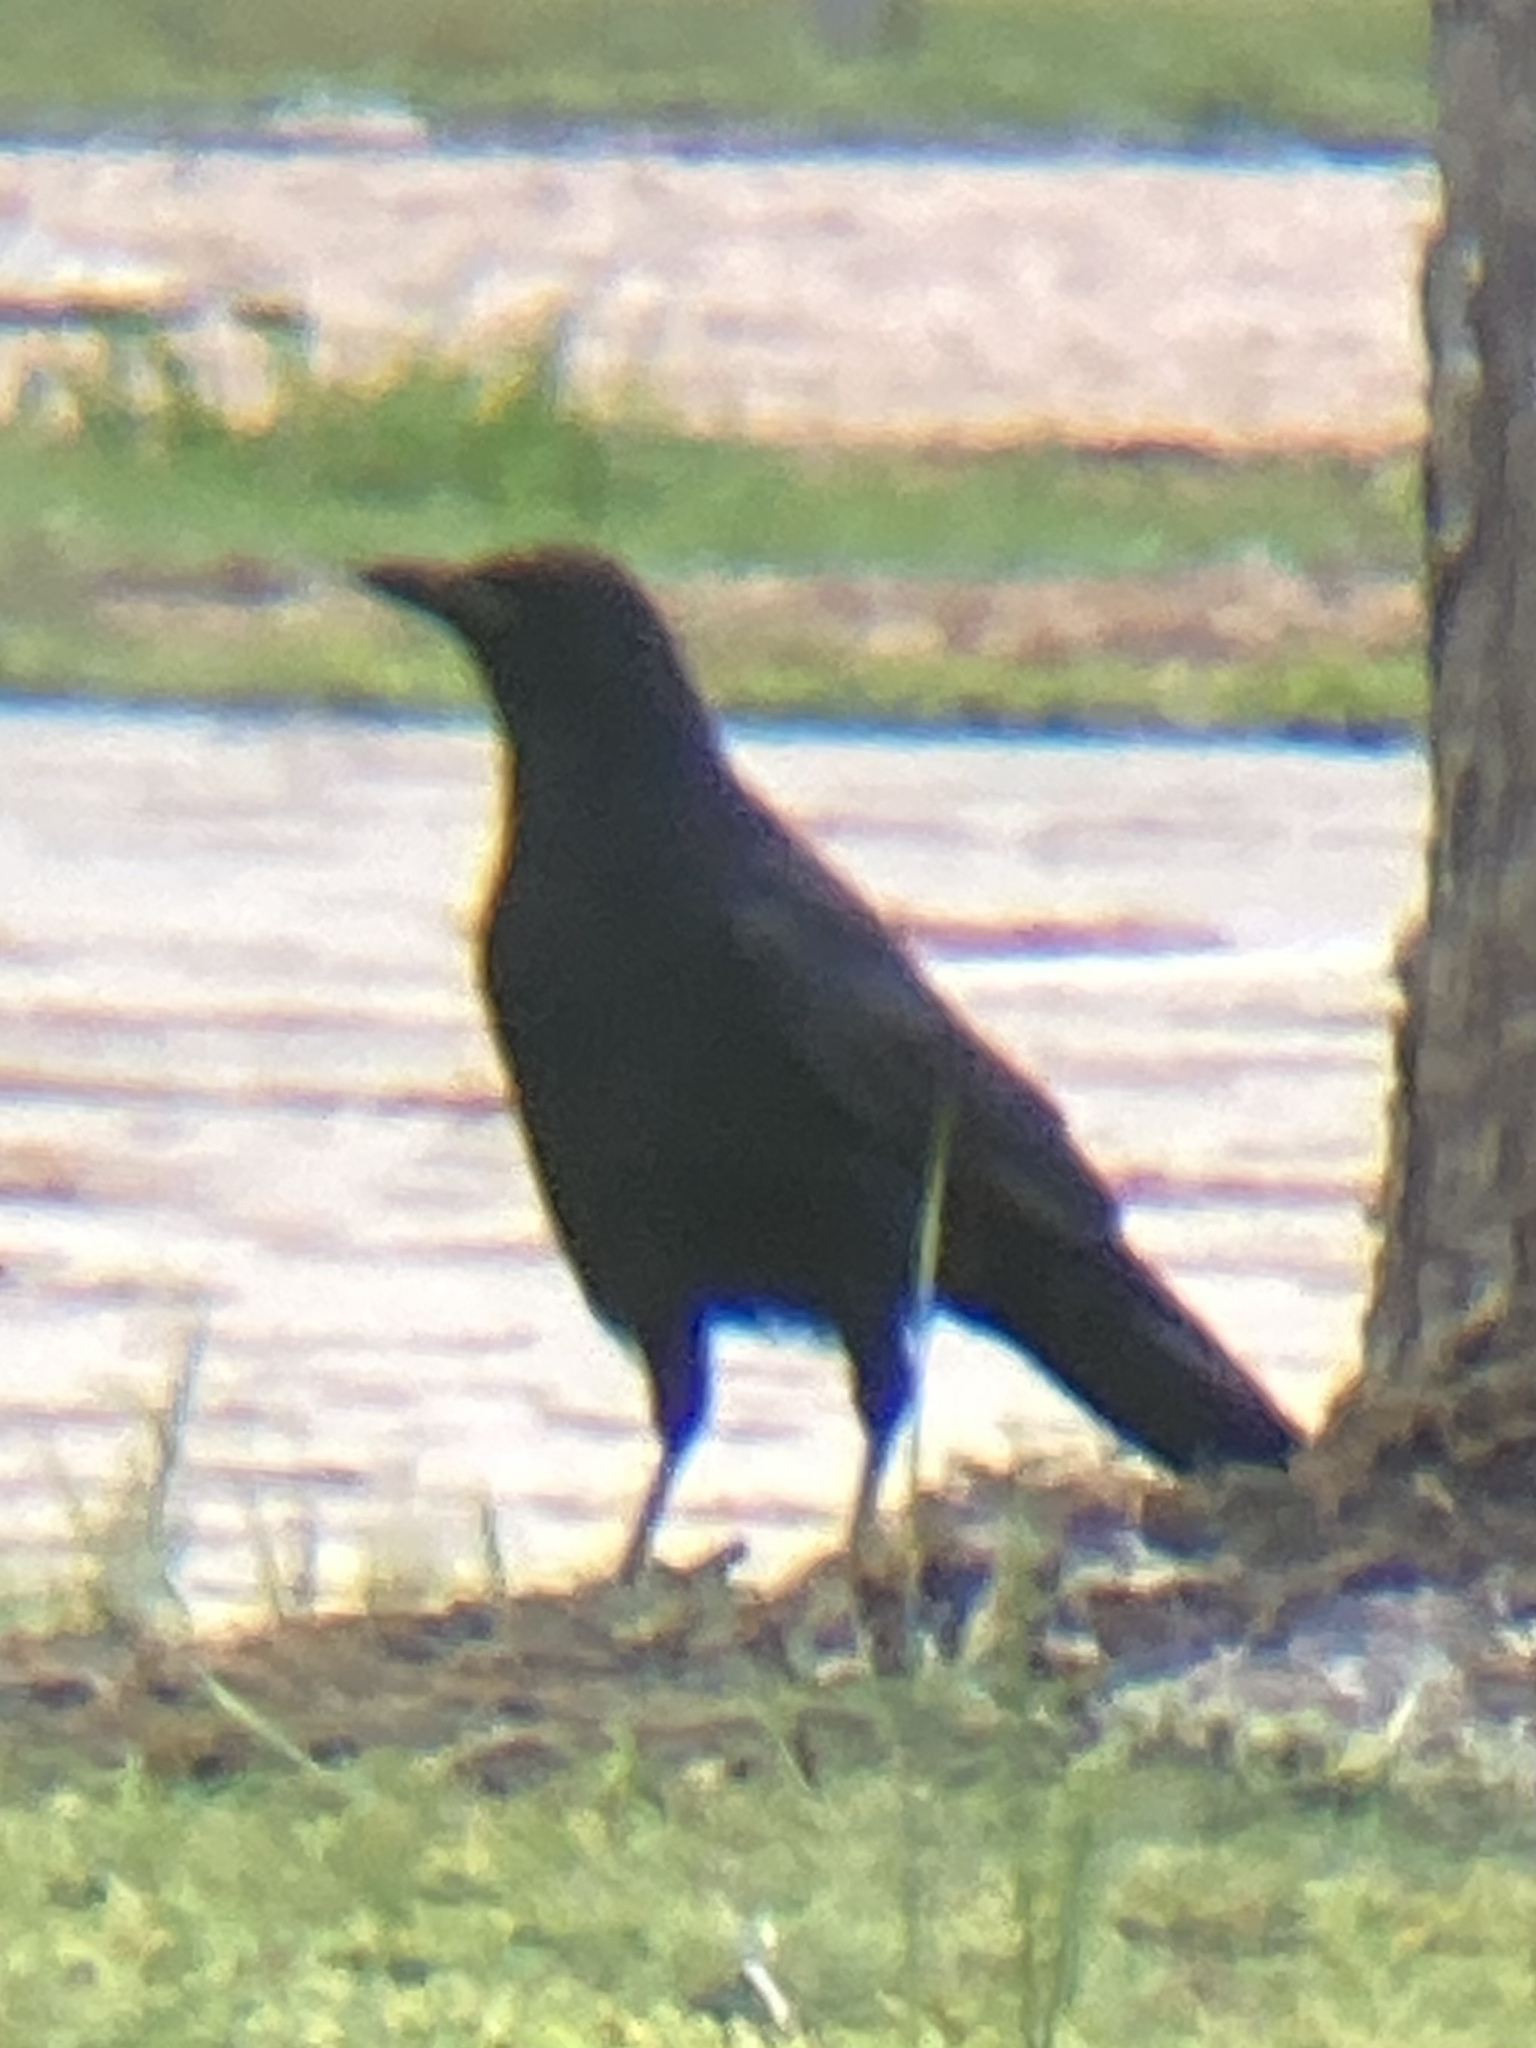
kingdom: Animalia
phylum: Chordata
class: Aves
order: Passeriformes
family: Corvidae
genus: Corvus
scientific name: Corvus brachyrhynchos
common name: American crow
